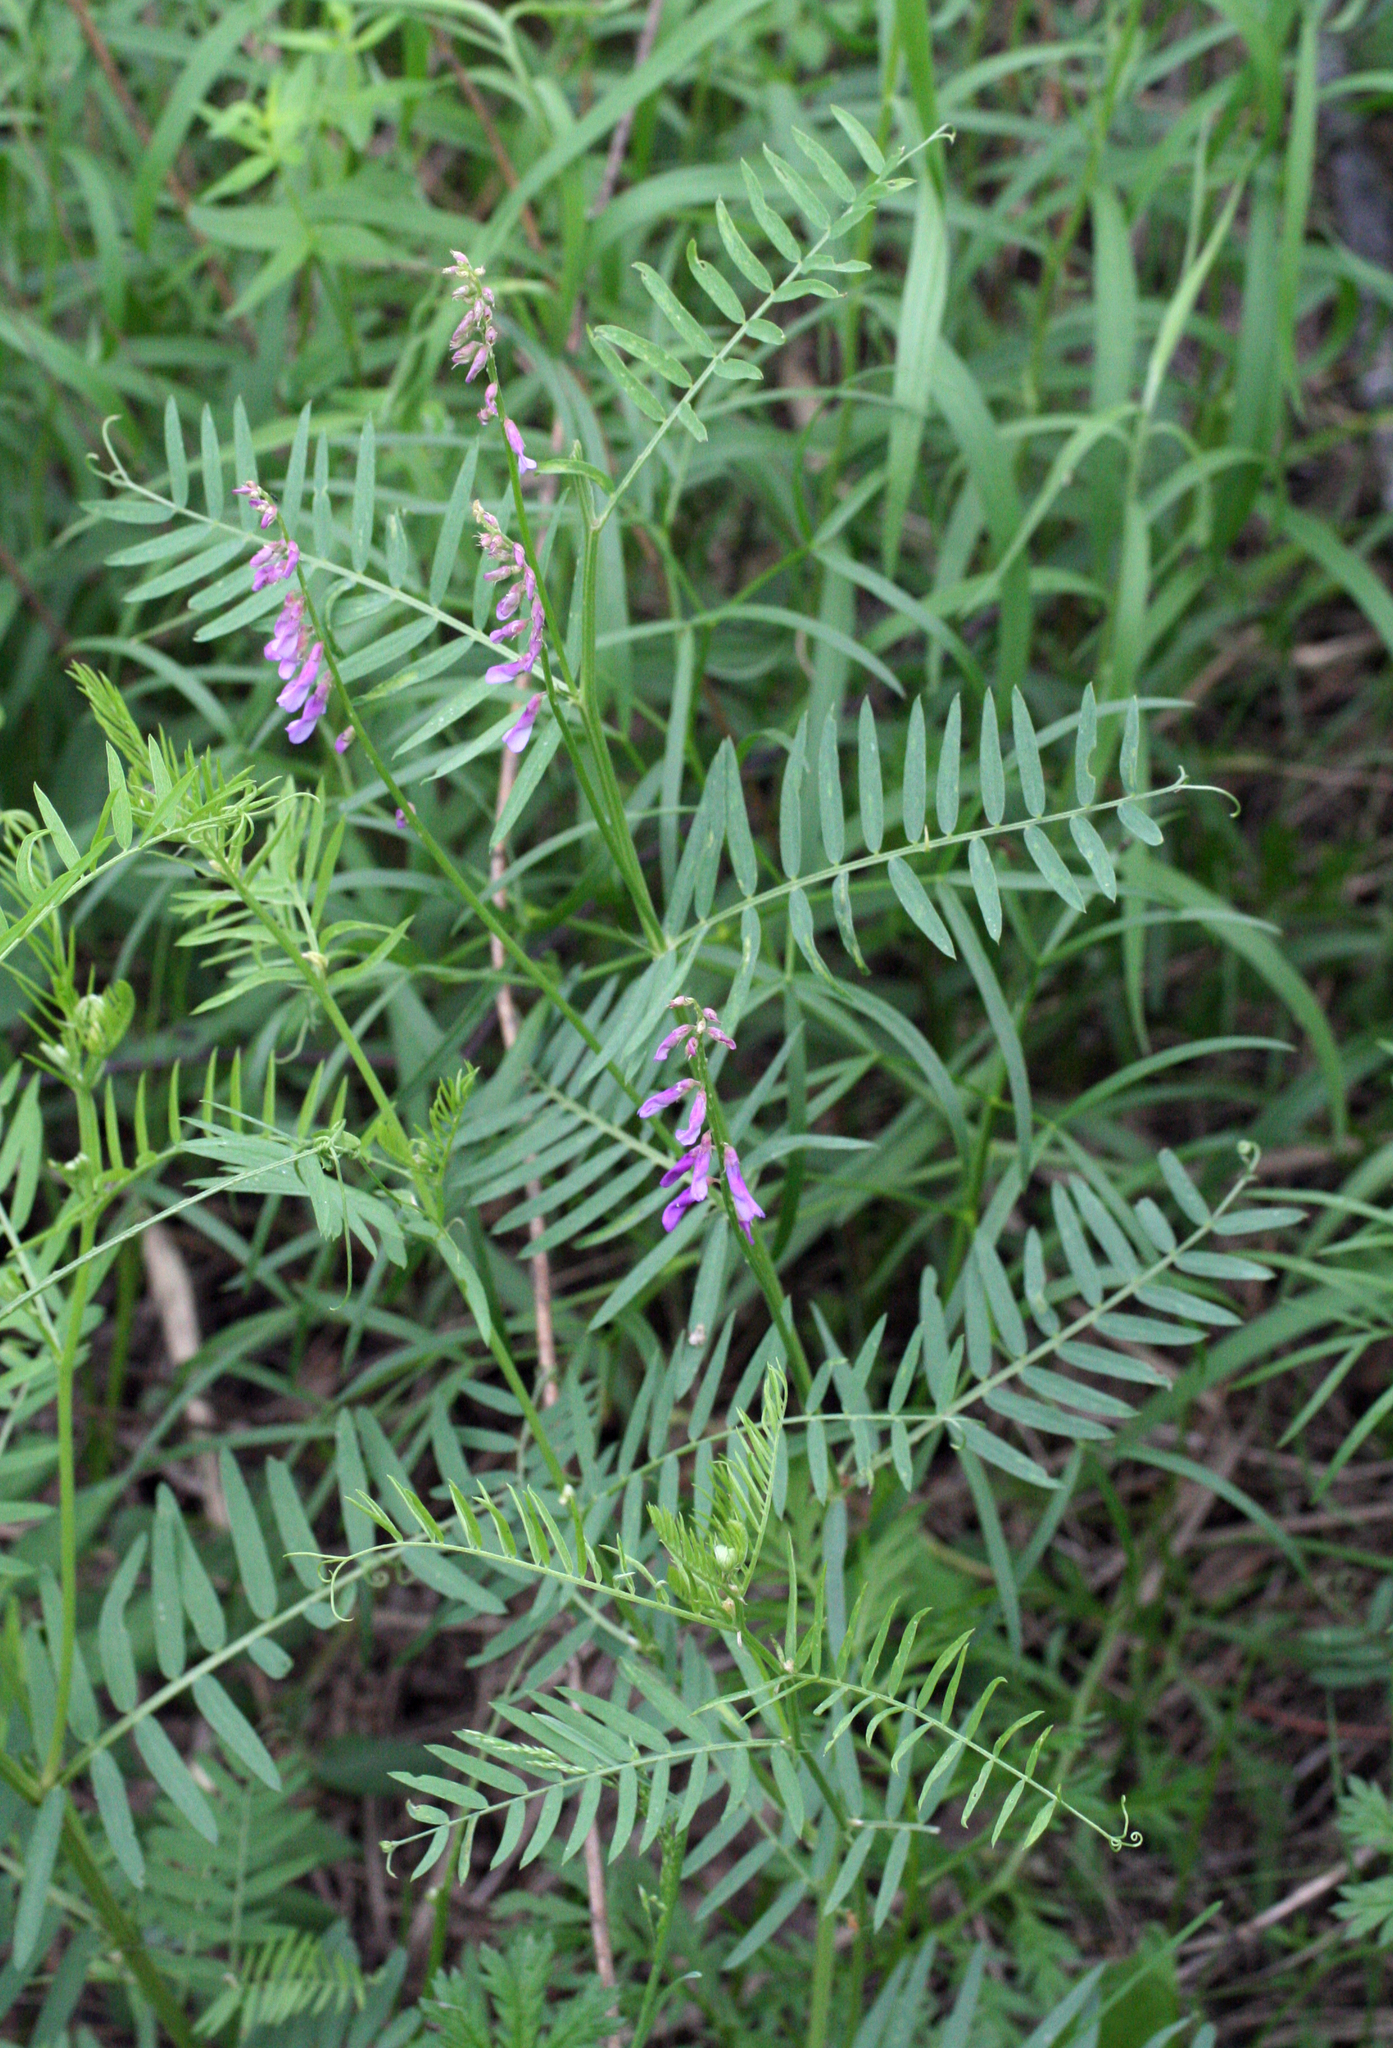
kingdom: Plantae
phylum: Tracheophyta
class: Magnoliopsida
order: Fabales
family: Fabaceae
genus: Vicia
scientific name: Vicia tenuifolia
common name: Fine-leaved vetch
